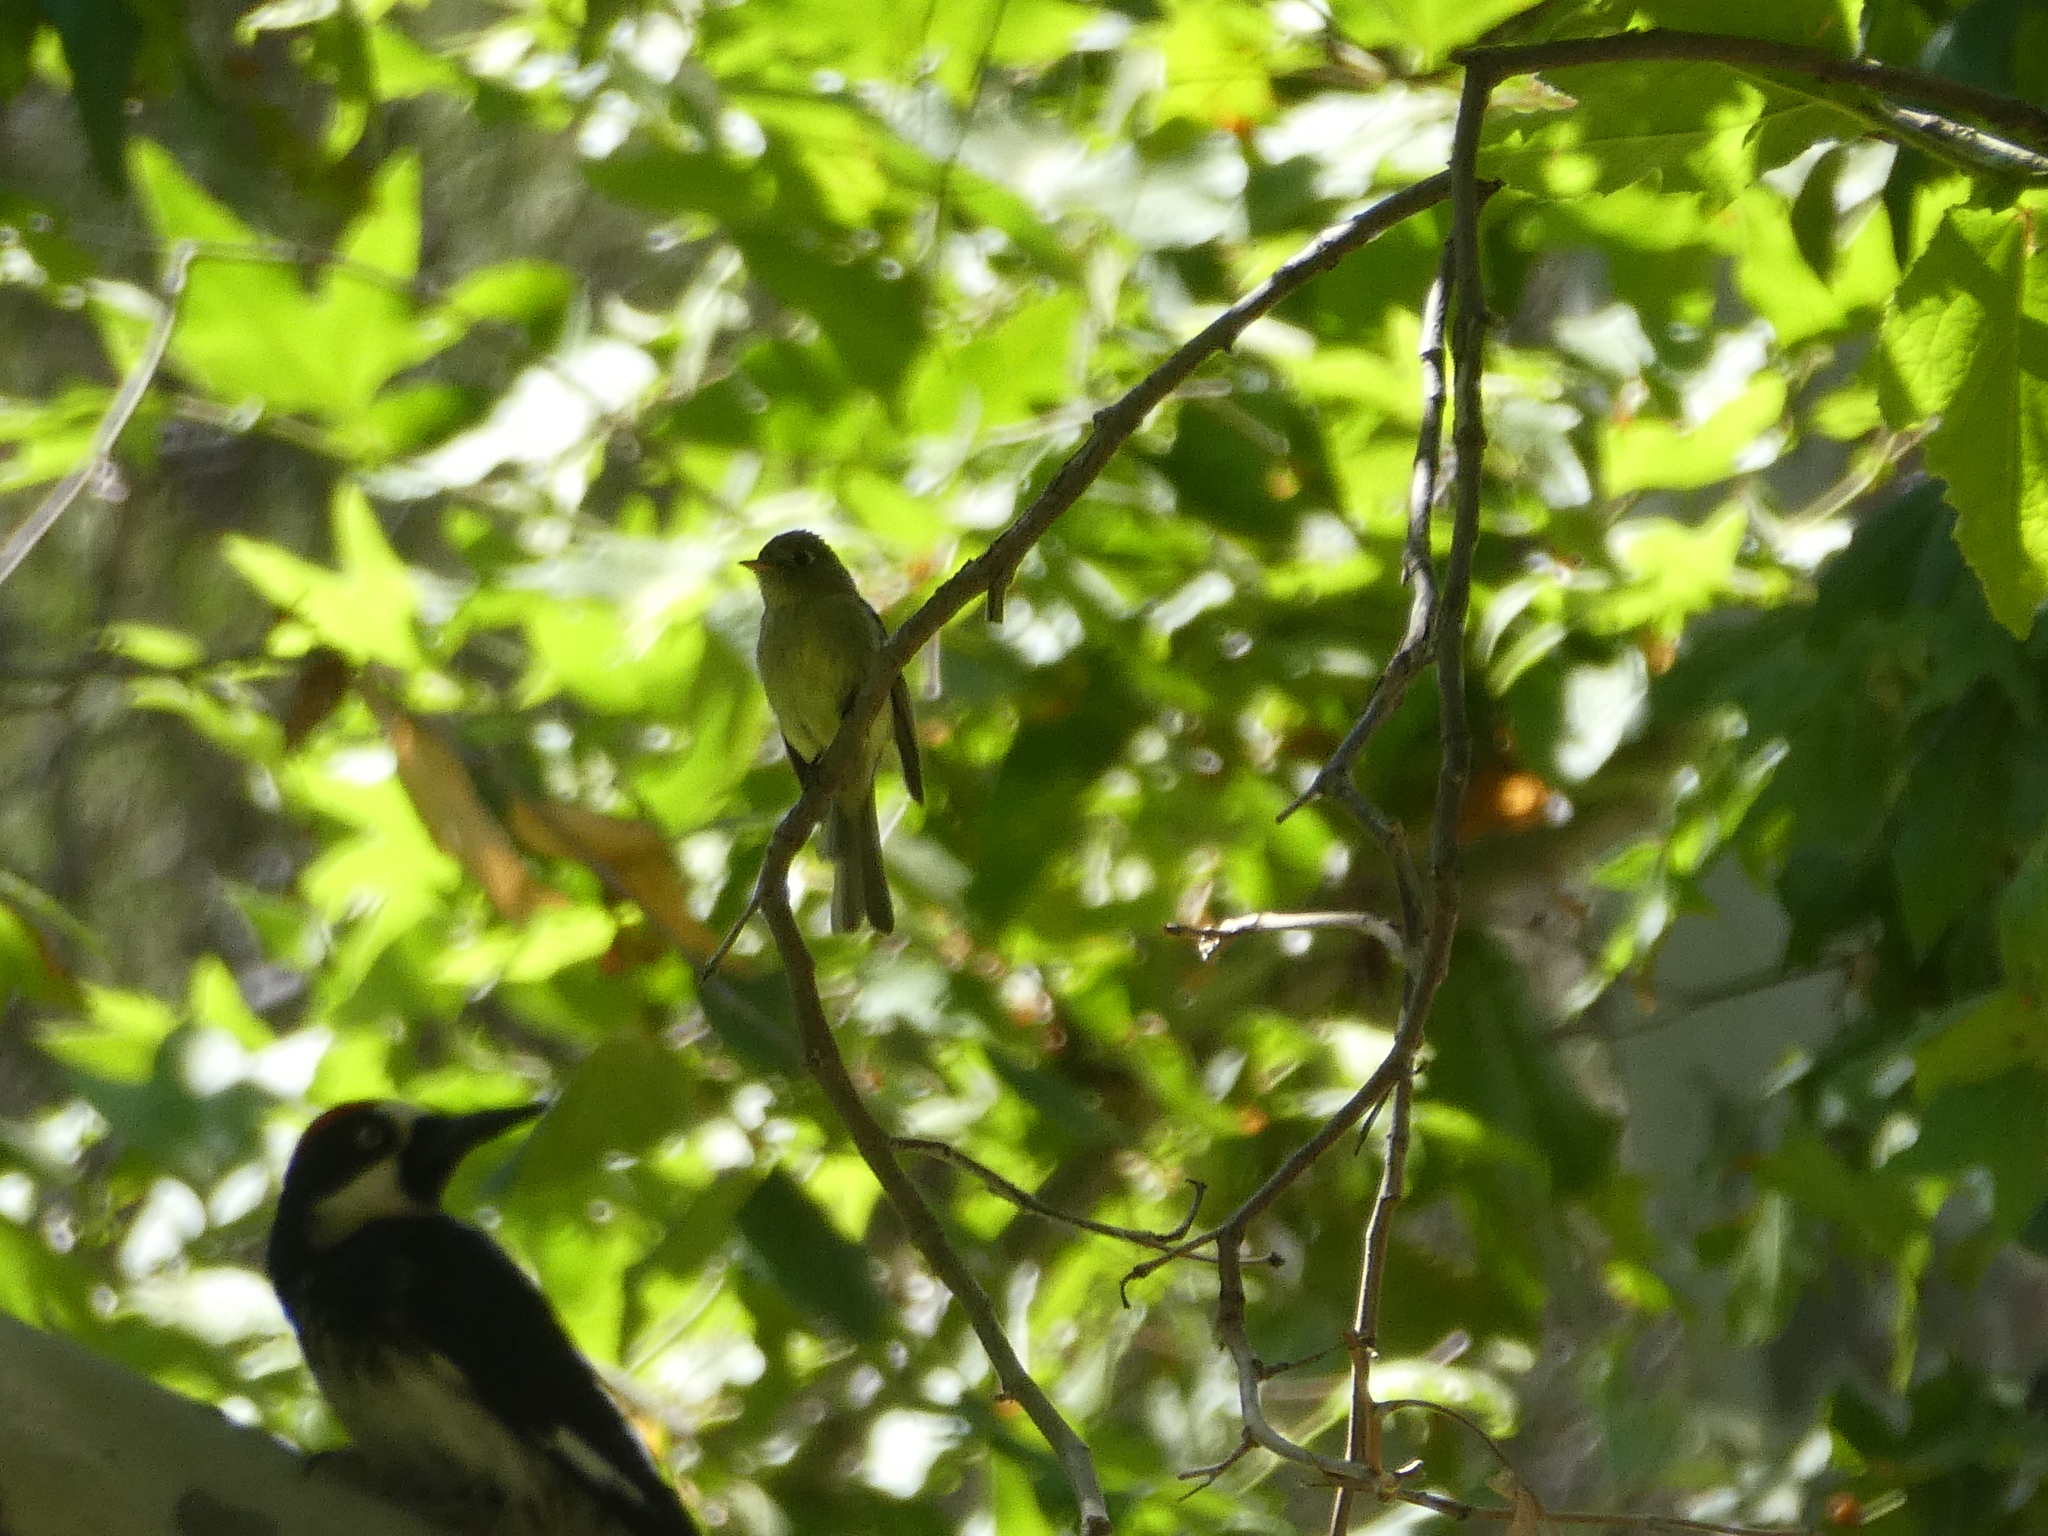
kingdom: Animalia
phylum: Chordata
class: Aves
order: Passeriformes
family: Tyrannidae
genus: Empidonax
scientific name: Empidonax difficilis
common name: Pacific-slope flycatcher
